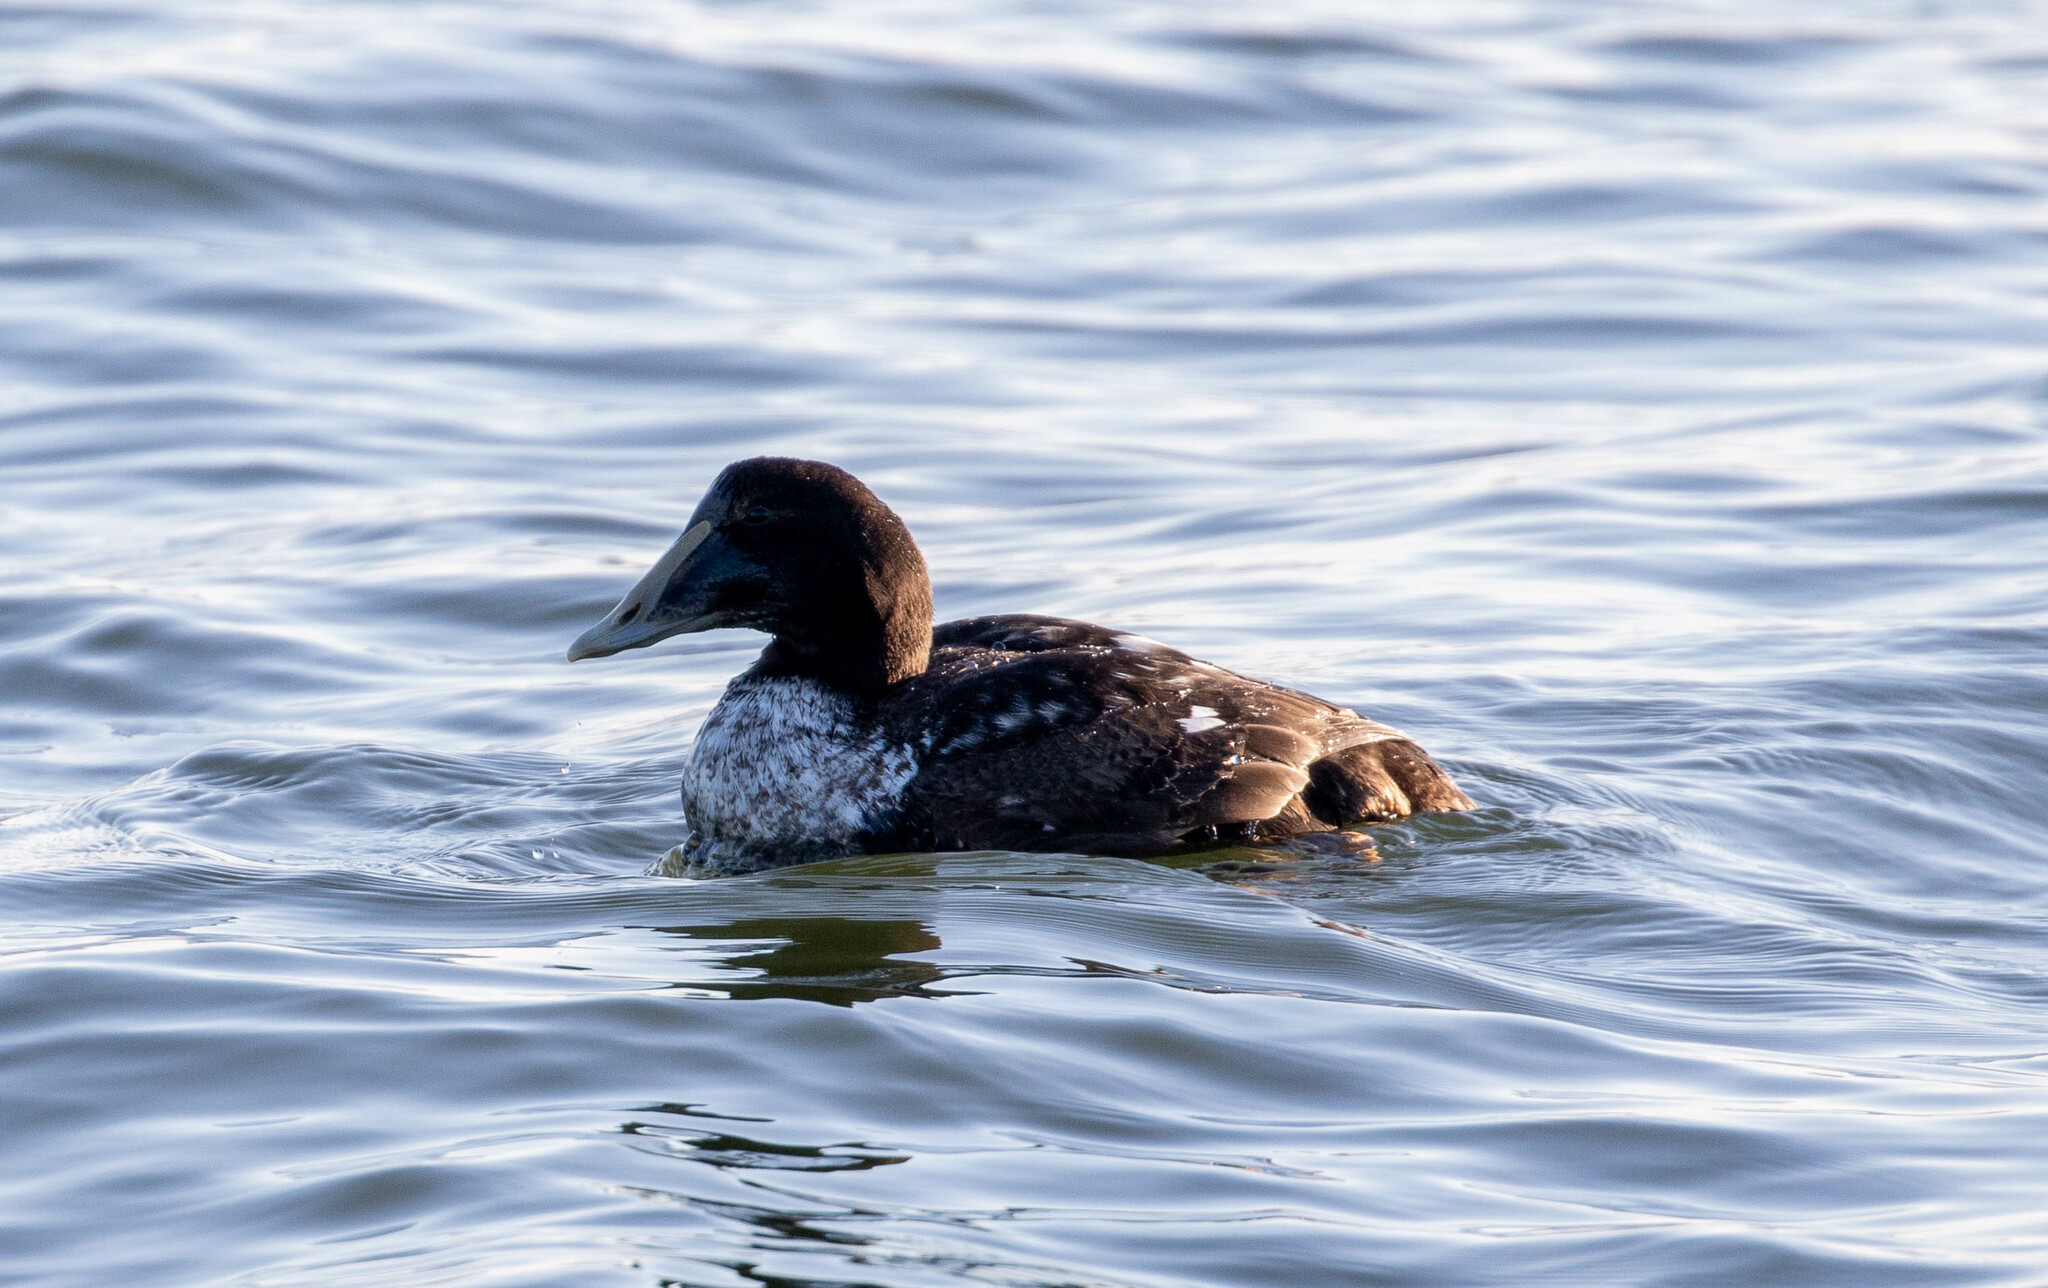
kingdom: Animalia
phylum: Chordata
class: Aves
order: Anseriformes
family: Anatidae
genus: Somateria
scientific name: Somateria mollissima
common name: Common eider
